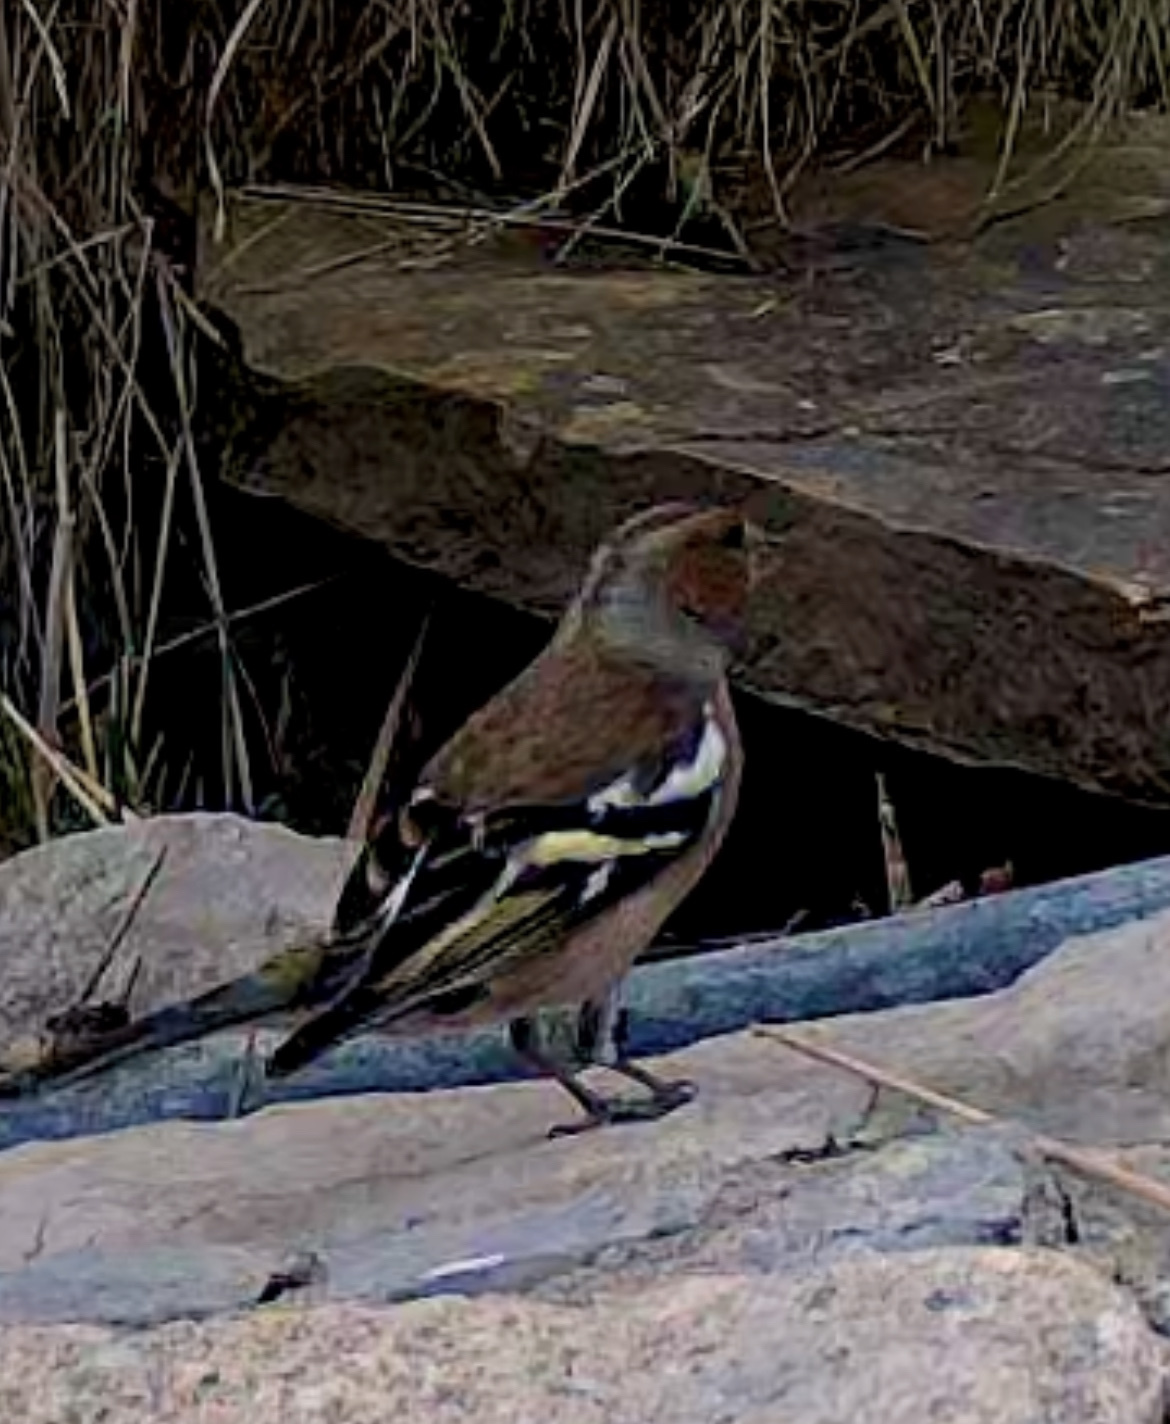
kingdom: Animalia
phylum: Chordata
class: Aves
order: Passeriformes
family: Fringillidae
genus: Fringilla
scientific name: Fringilla coelebs
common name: Common chaffinch
